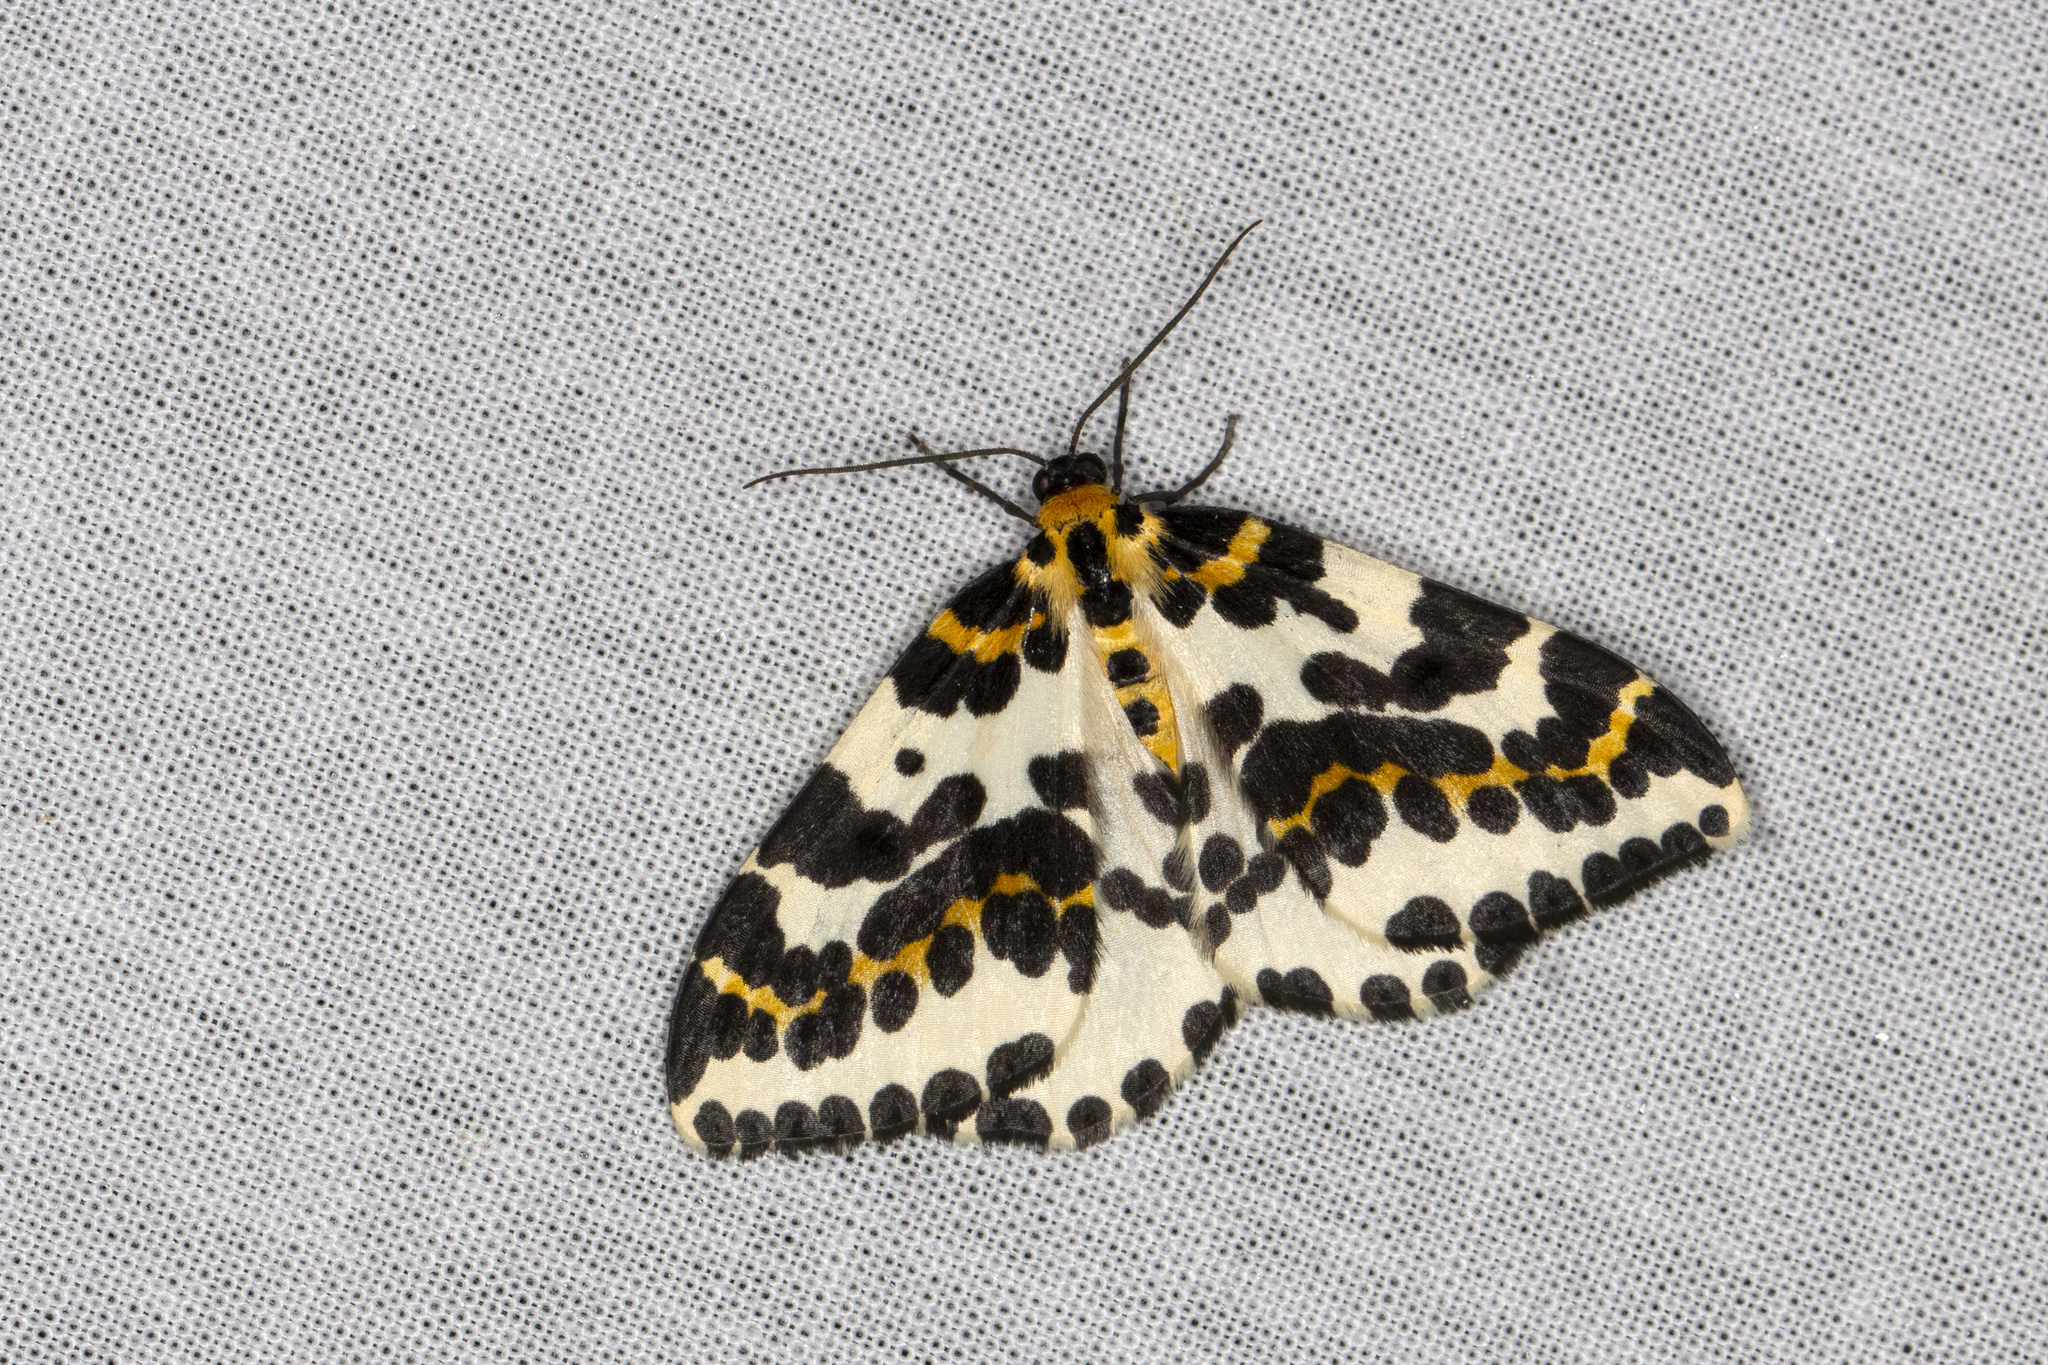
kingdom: Animalia
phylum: Arthropoda
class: Insecta
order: Lepidoptera
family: Geometridae
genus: Abraxas
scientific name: Abraxas grossulariata
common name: Magpie
